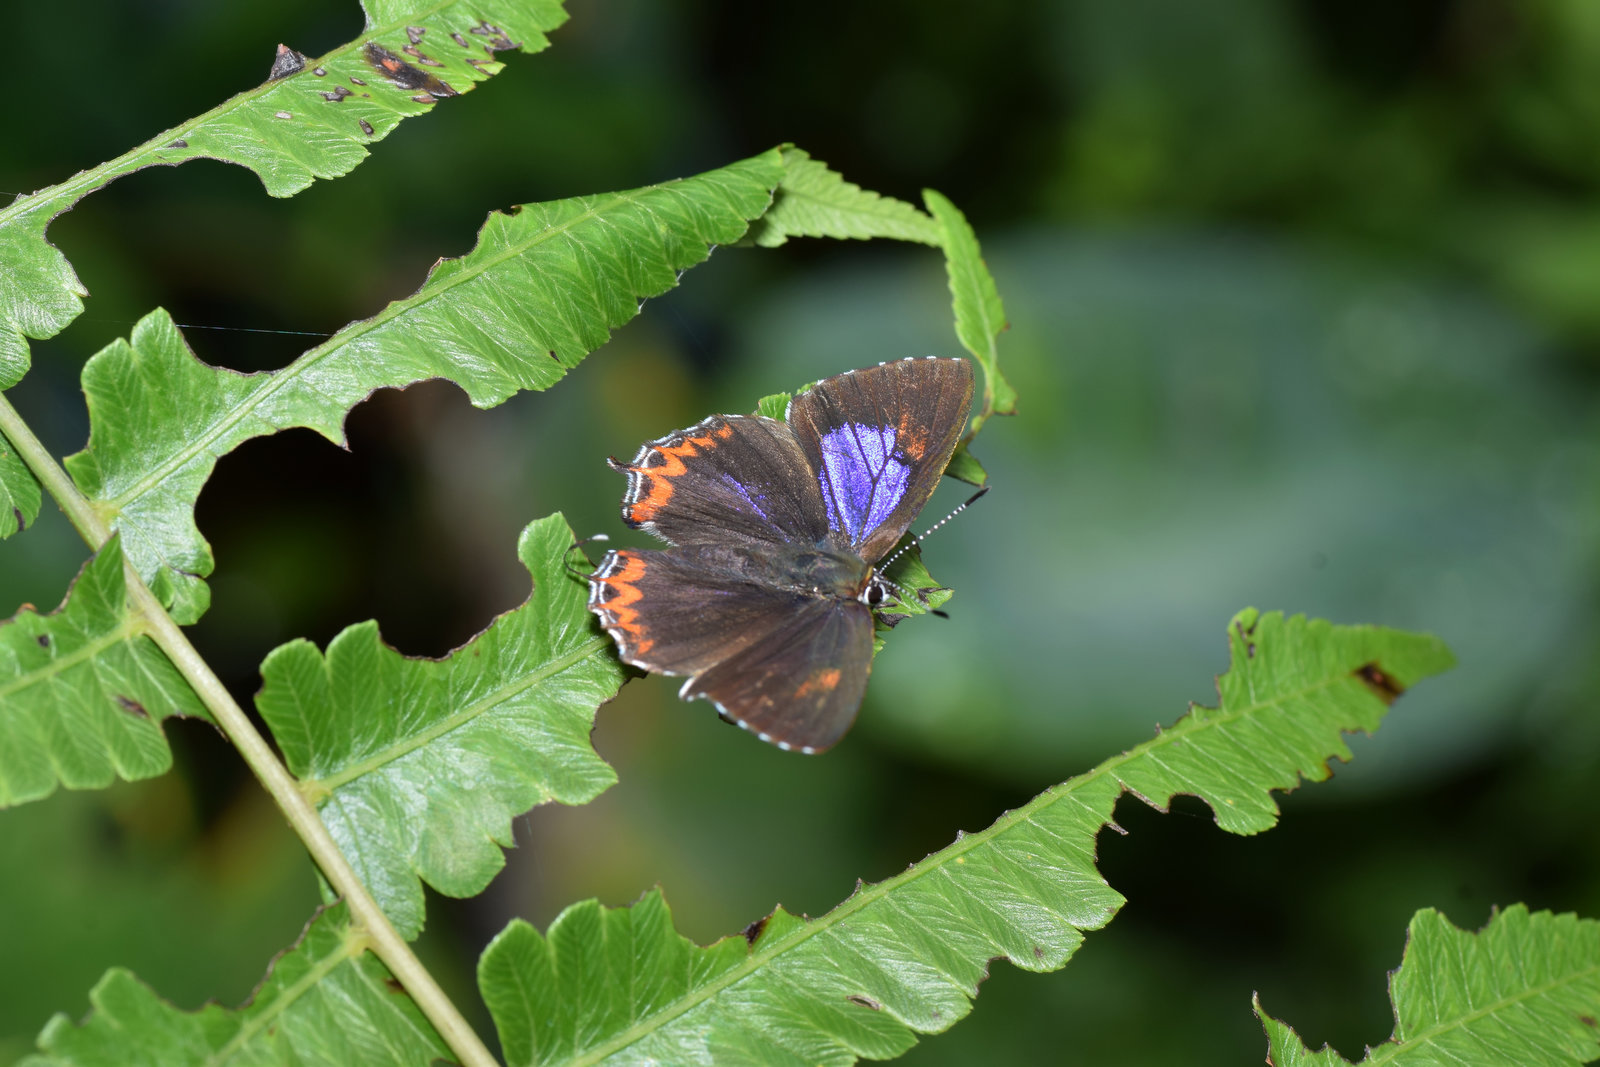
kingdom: Animalia
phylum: Arthropoda
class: Insecta
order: Lepidoptera
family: Lycaenidae
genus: Heliophorus
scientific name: Heliophorus epicles
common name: Purple sapphire
